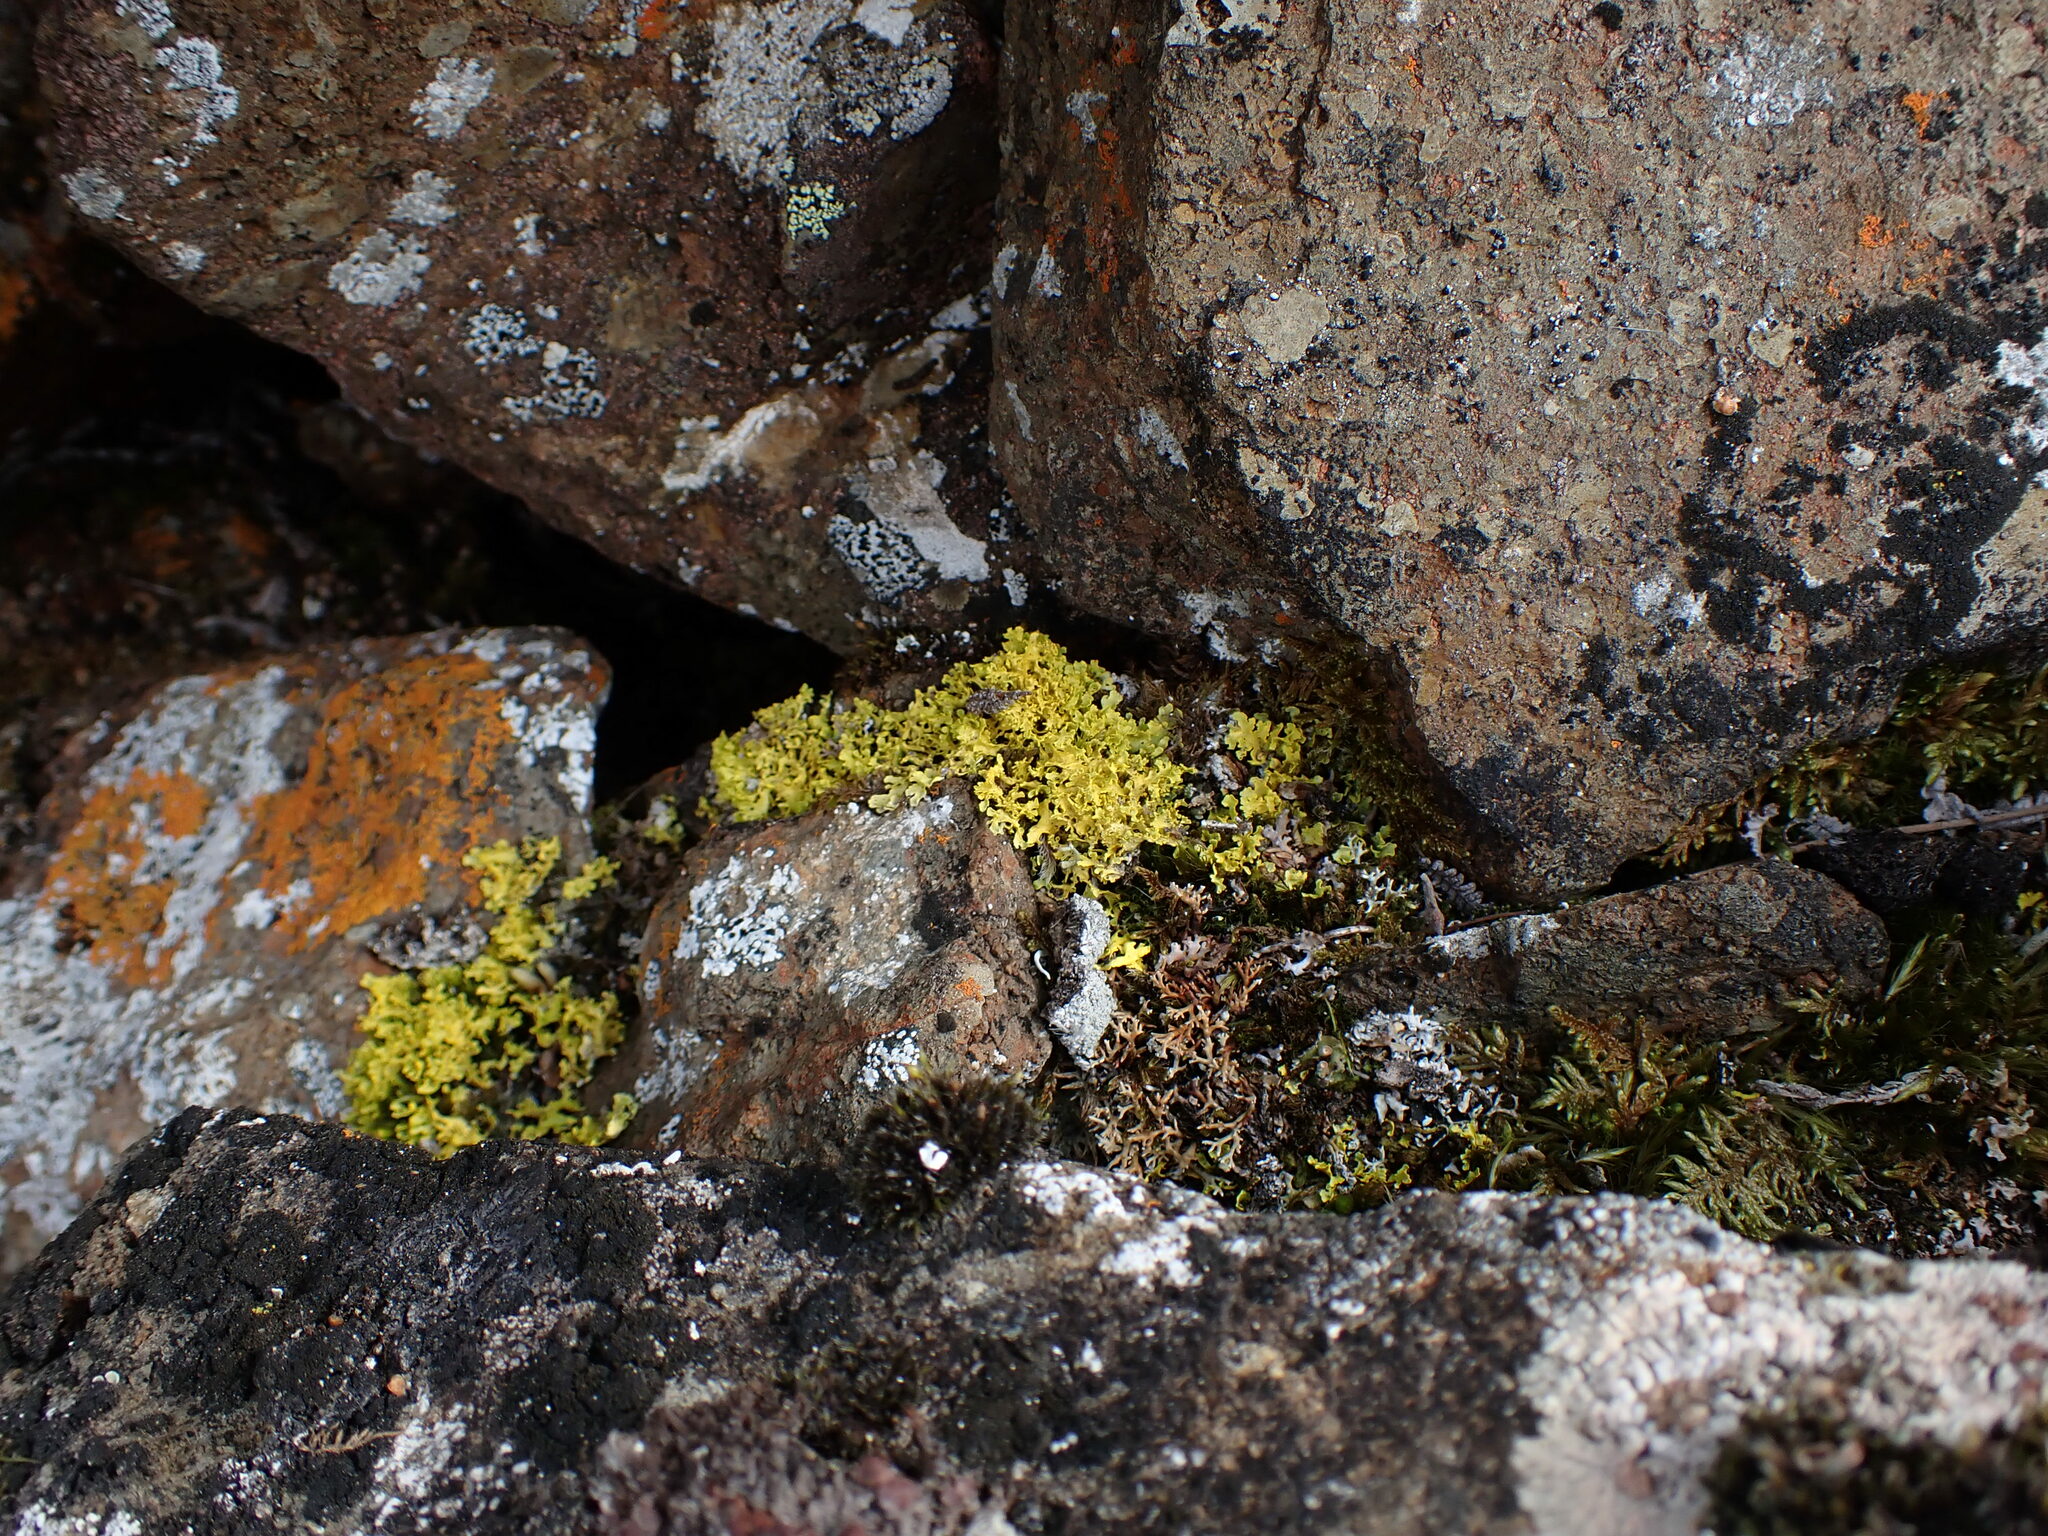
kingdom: Fungi
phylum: Ascomycota
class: Lecanoromycetes
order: Lecanorales
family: Parmeliaceae
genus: Vulpicida
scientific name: Vulpicida juniperinus
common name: Yellow lichen
